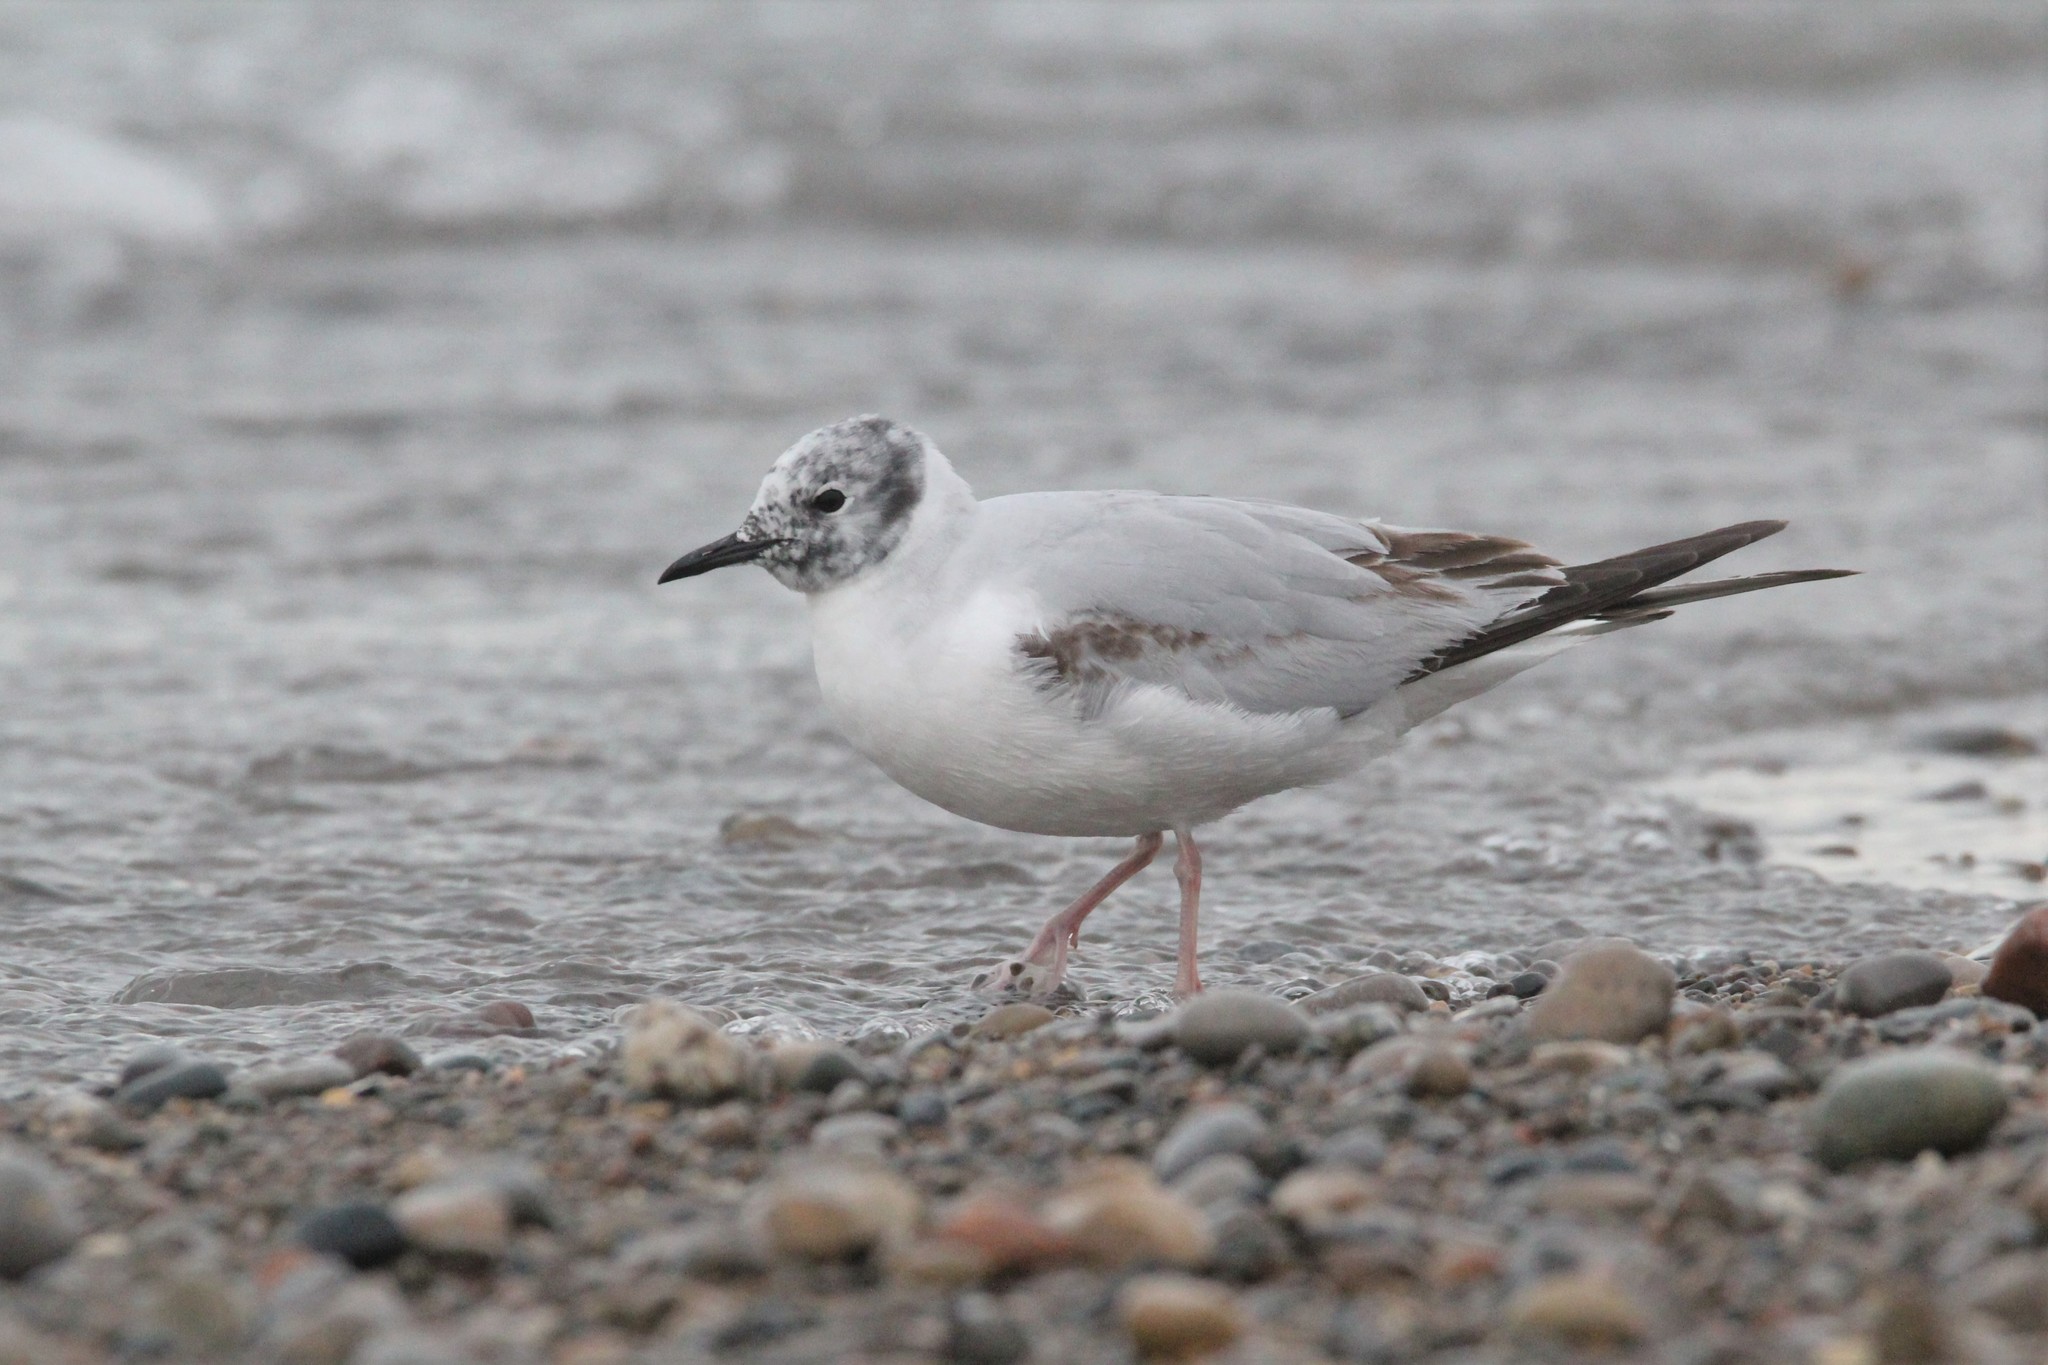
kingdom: Animalia
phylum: Chordata
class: Aves
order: Charadriiformes
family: Laridae
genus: Chroicocephalus
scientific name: Chroicocephalus philadelphia
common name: Bonaparte's gull
